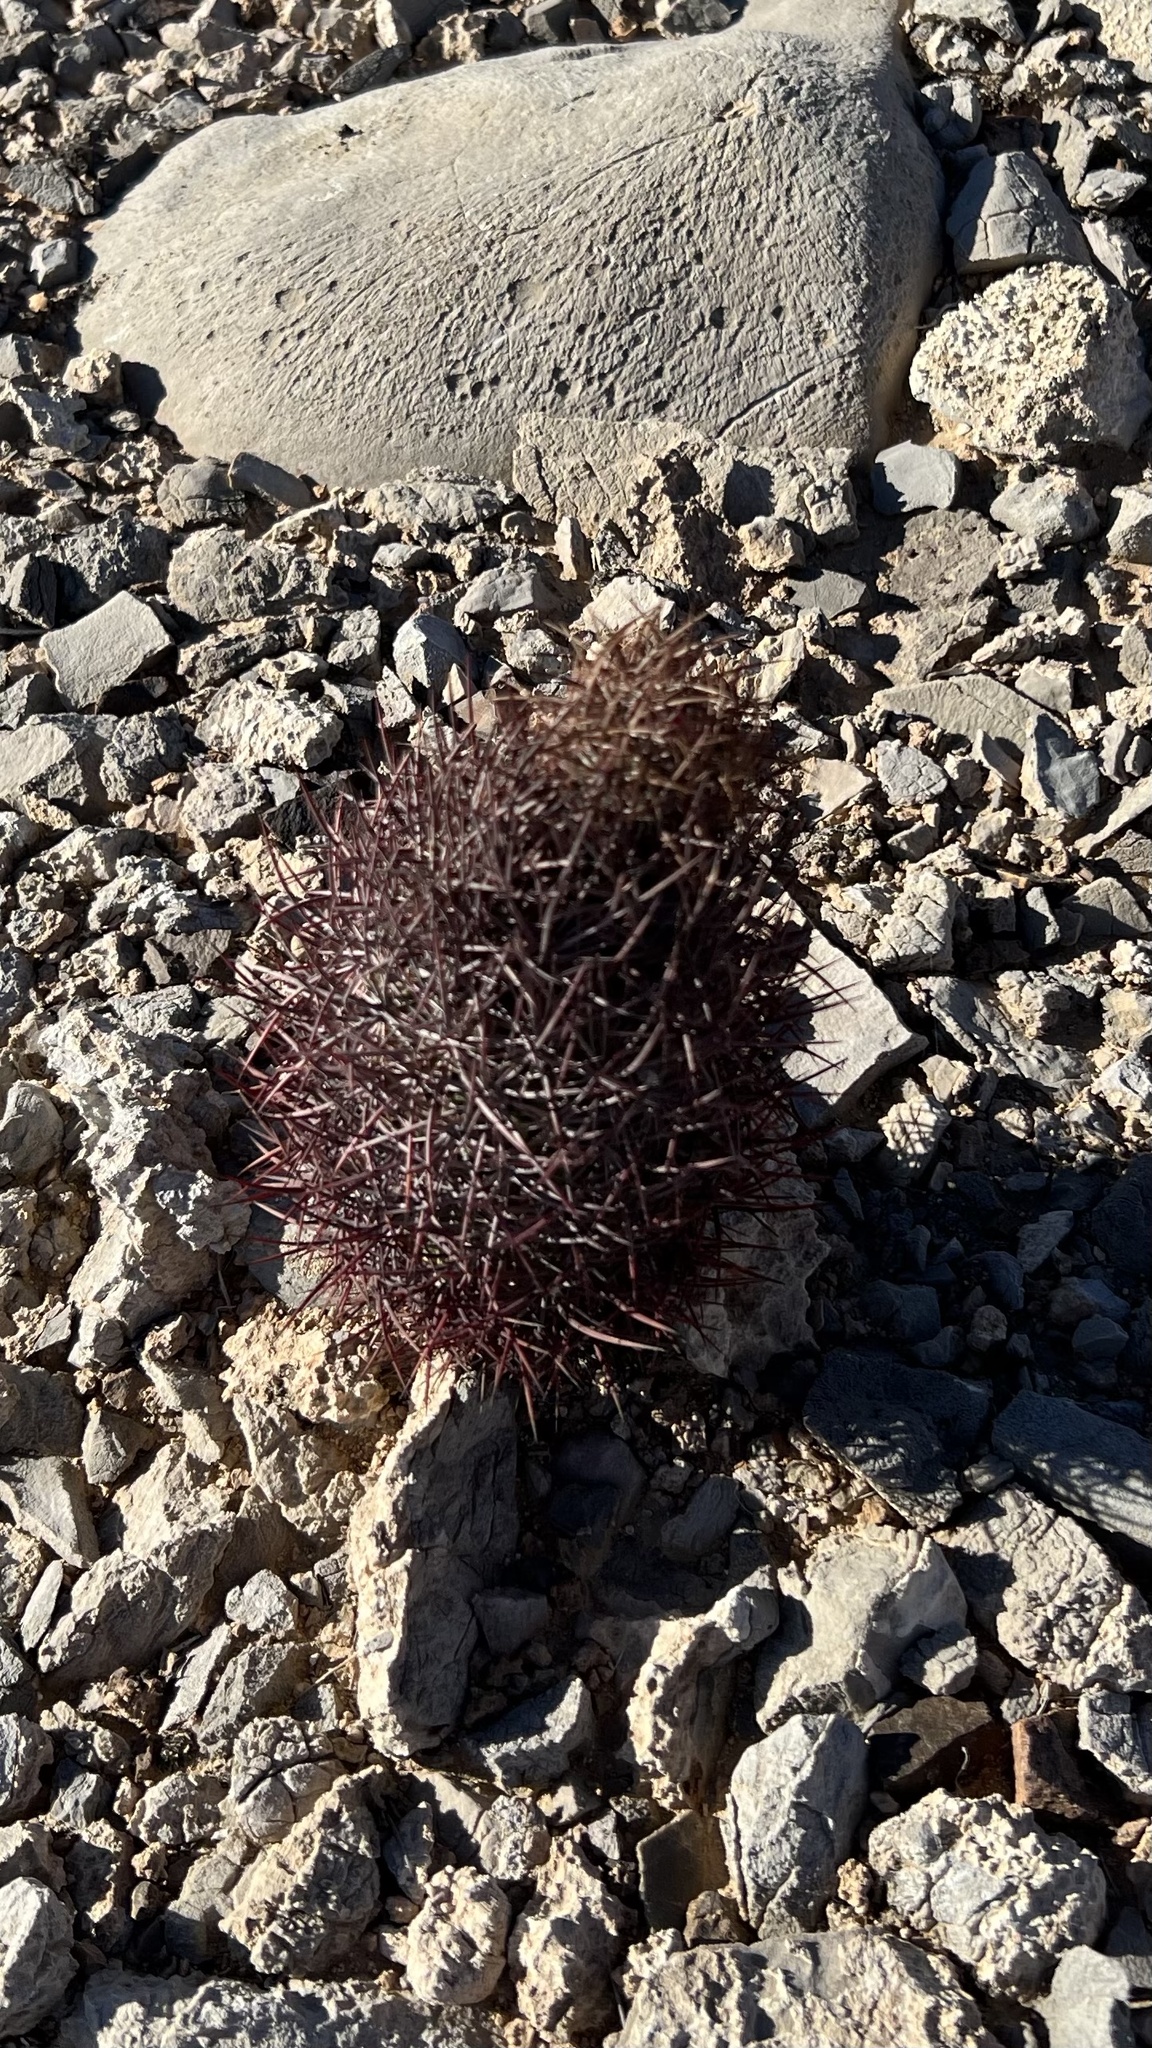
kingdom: Plantae
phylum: Tracheophyta
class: Magnoliopsida
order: Caryophyllales
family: Cactaceae
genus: Sclerocactus
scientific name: Sclerocactus johnsonii
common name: Eight-spine fishhook cactus
